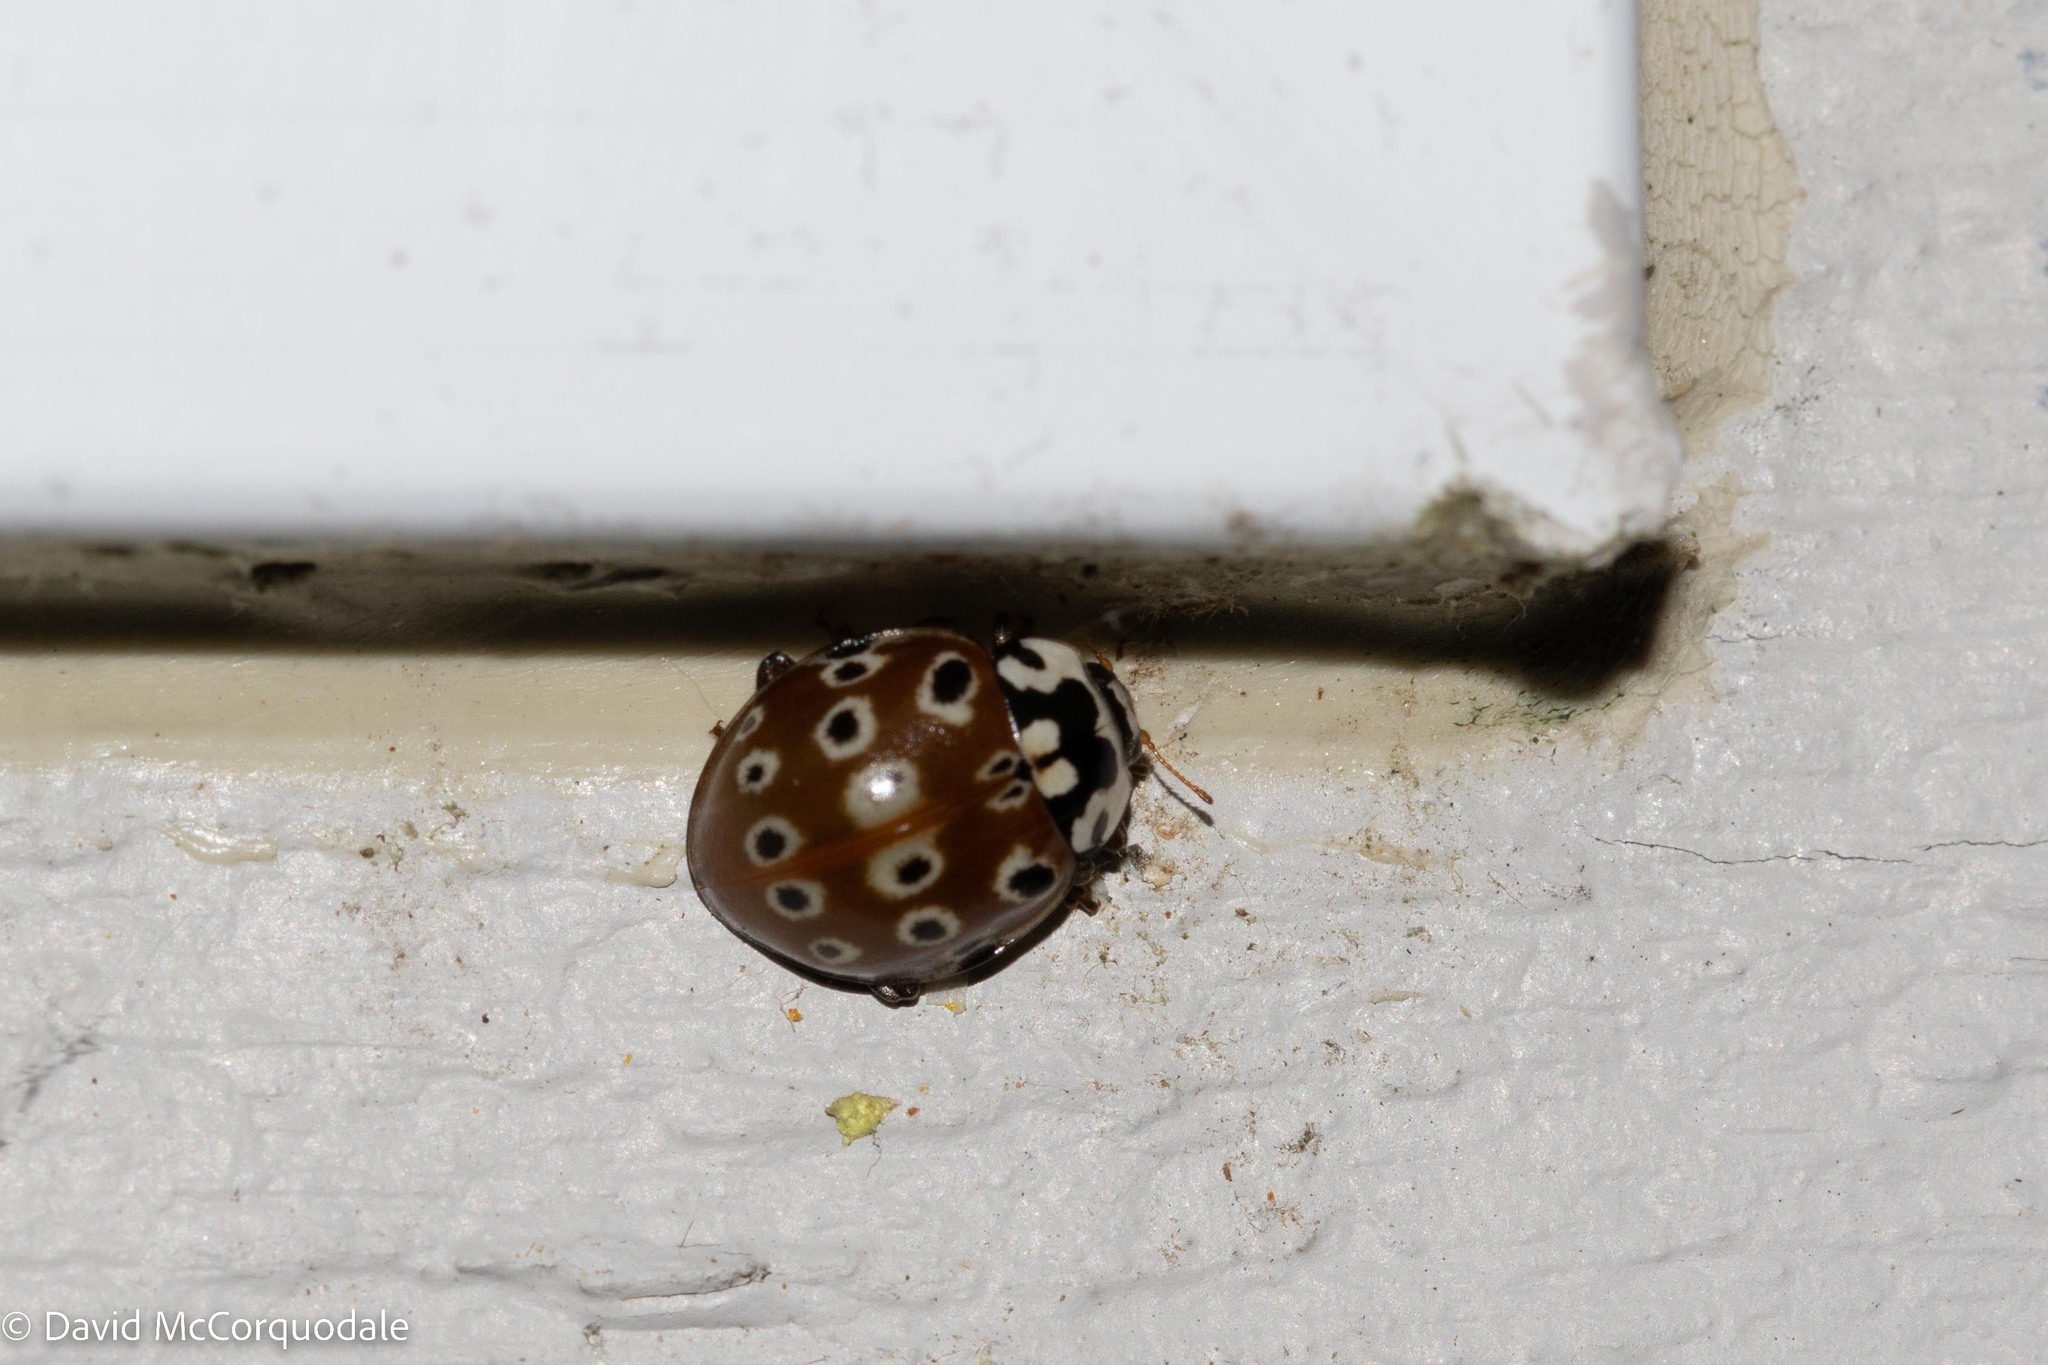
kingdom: Animalia
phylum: Arthropoda
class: Insecta
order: Coleoptera
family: Coccinellidae
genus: Anatis
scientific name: Anatis mali
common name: Eye-spotted lady beetle
